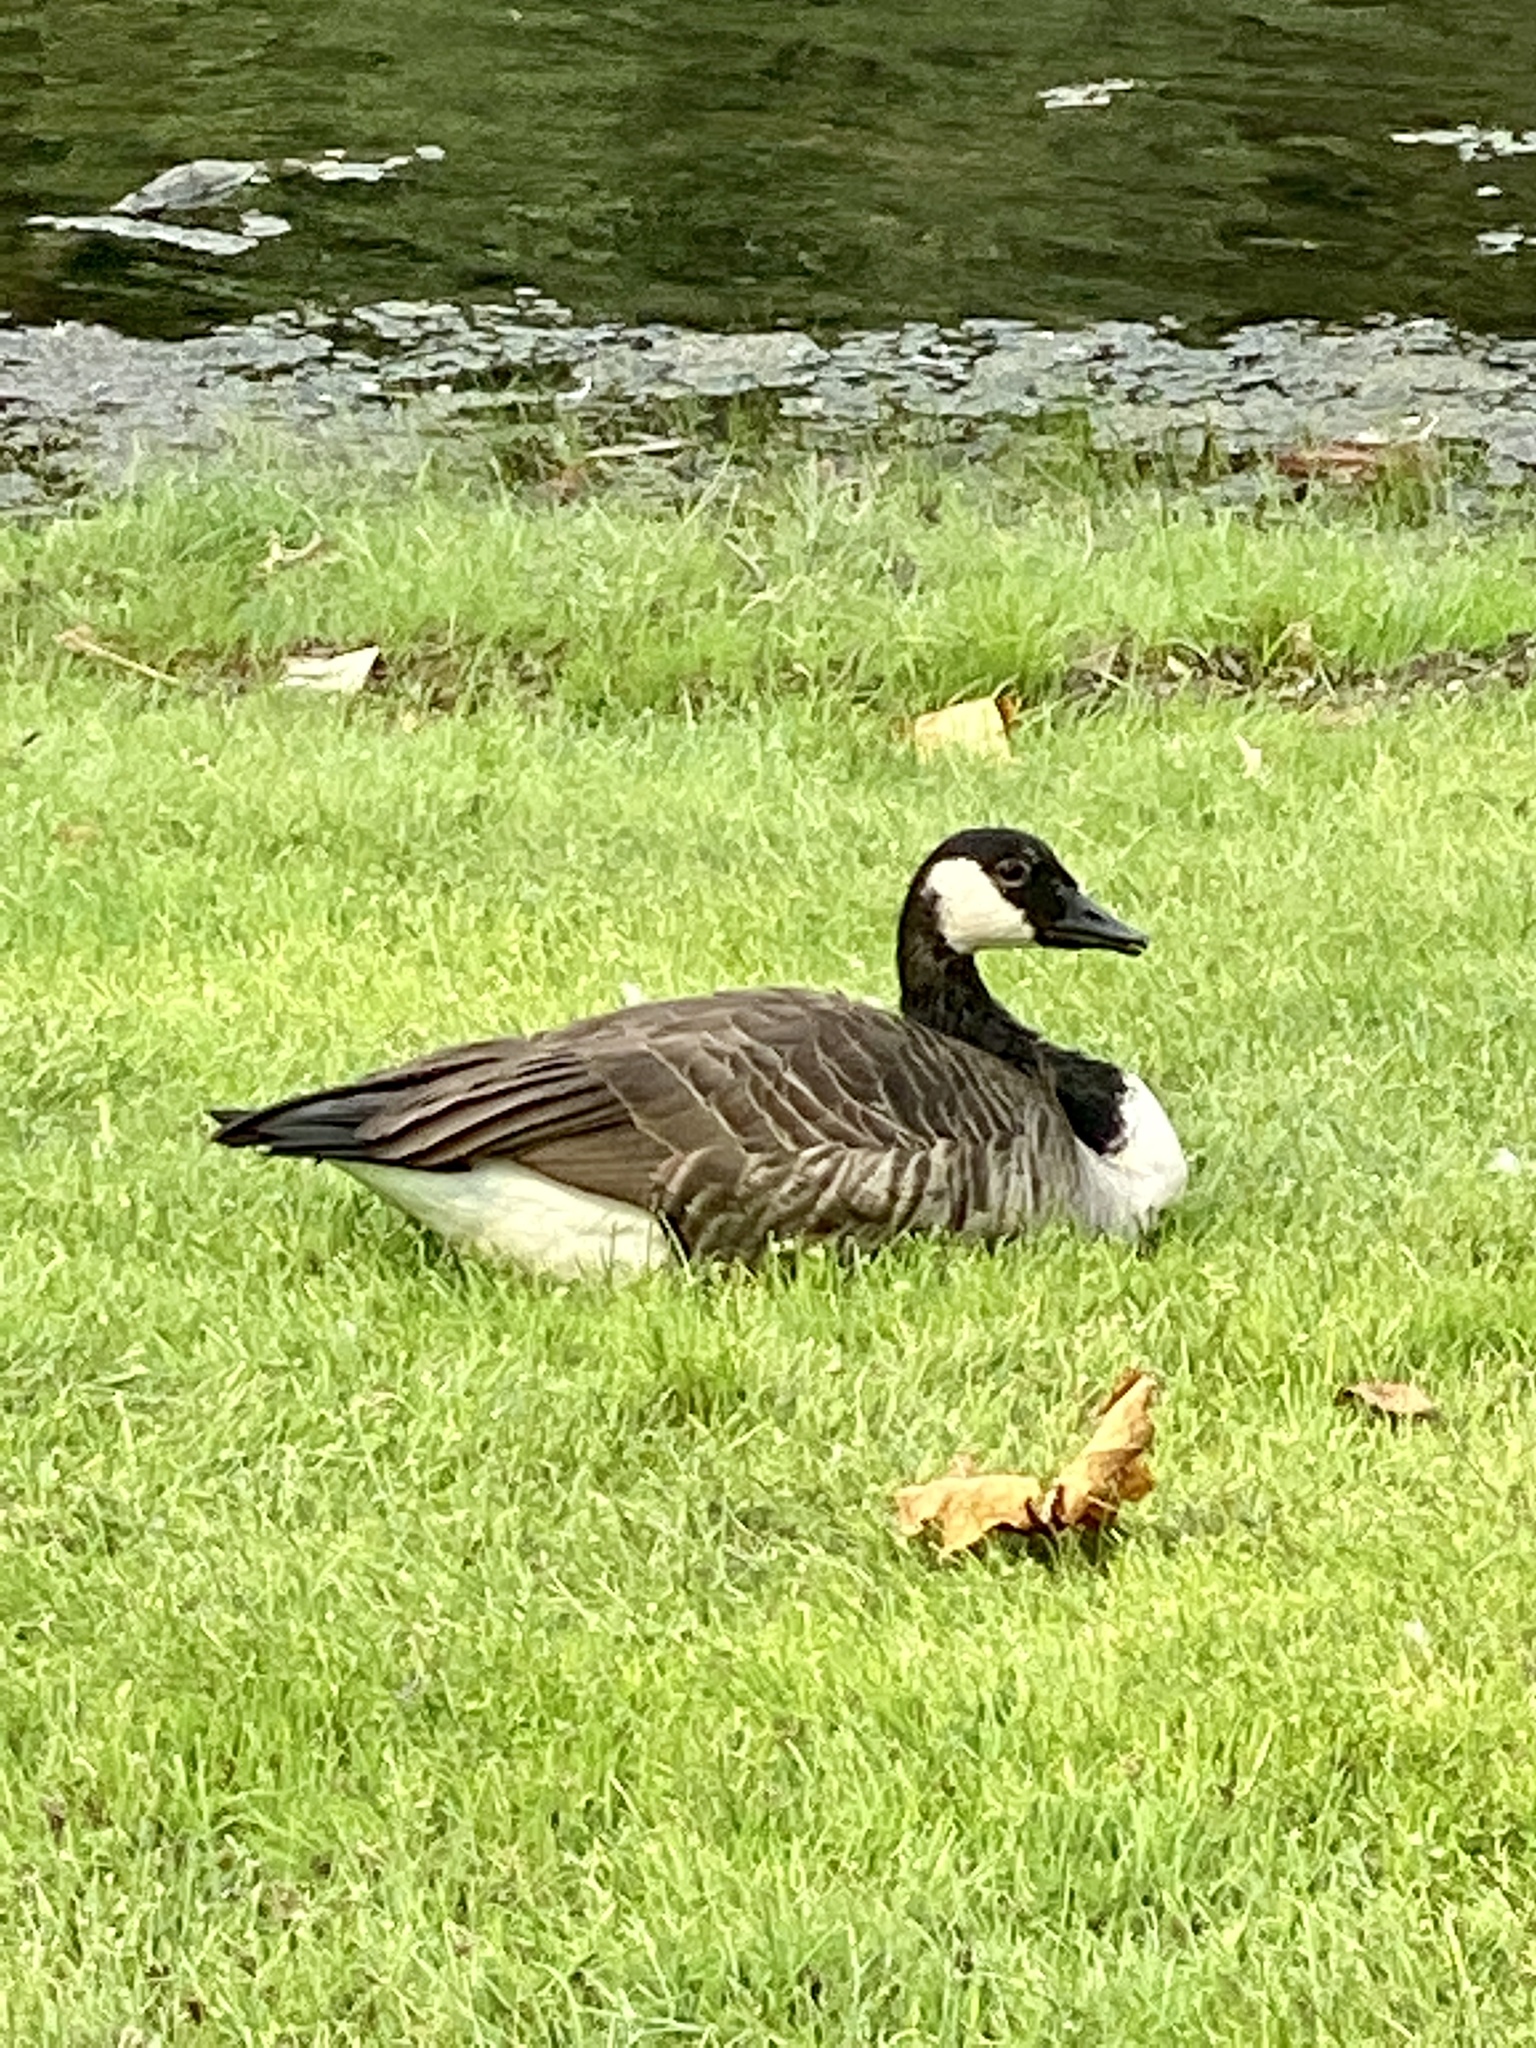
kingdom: Animalia
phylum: Chordata
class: Aves
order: Anseriformes
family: Anatidae
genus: Branta
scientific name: Branta canadensis
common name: Canada goose
